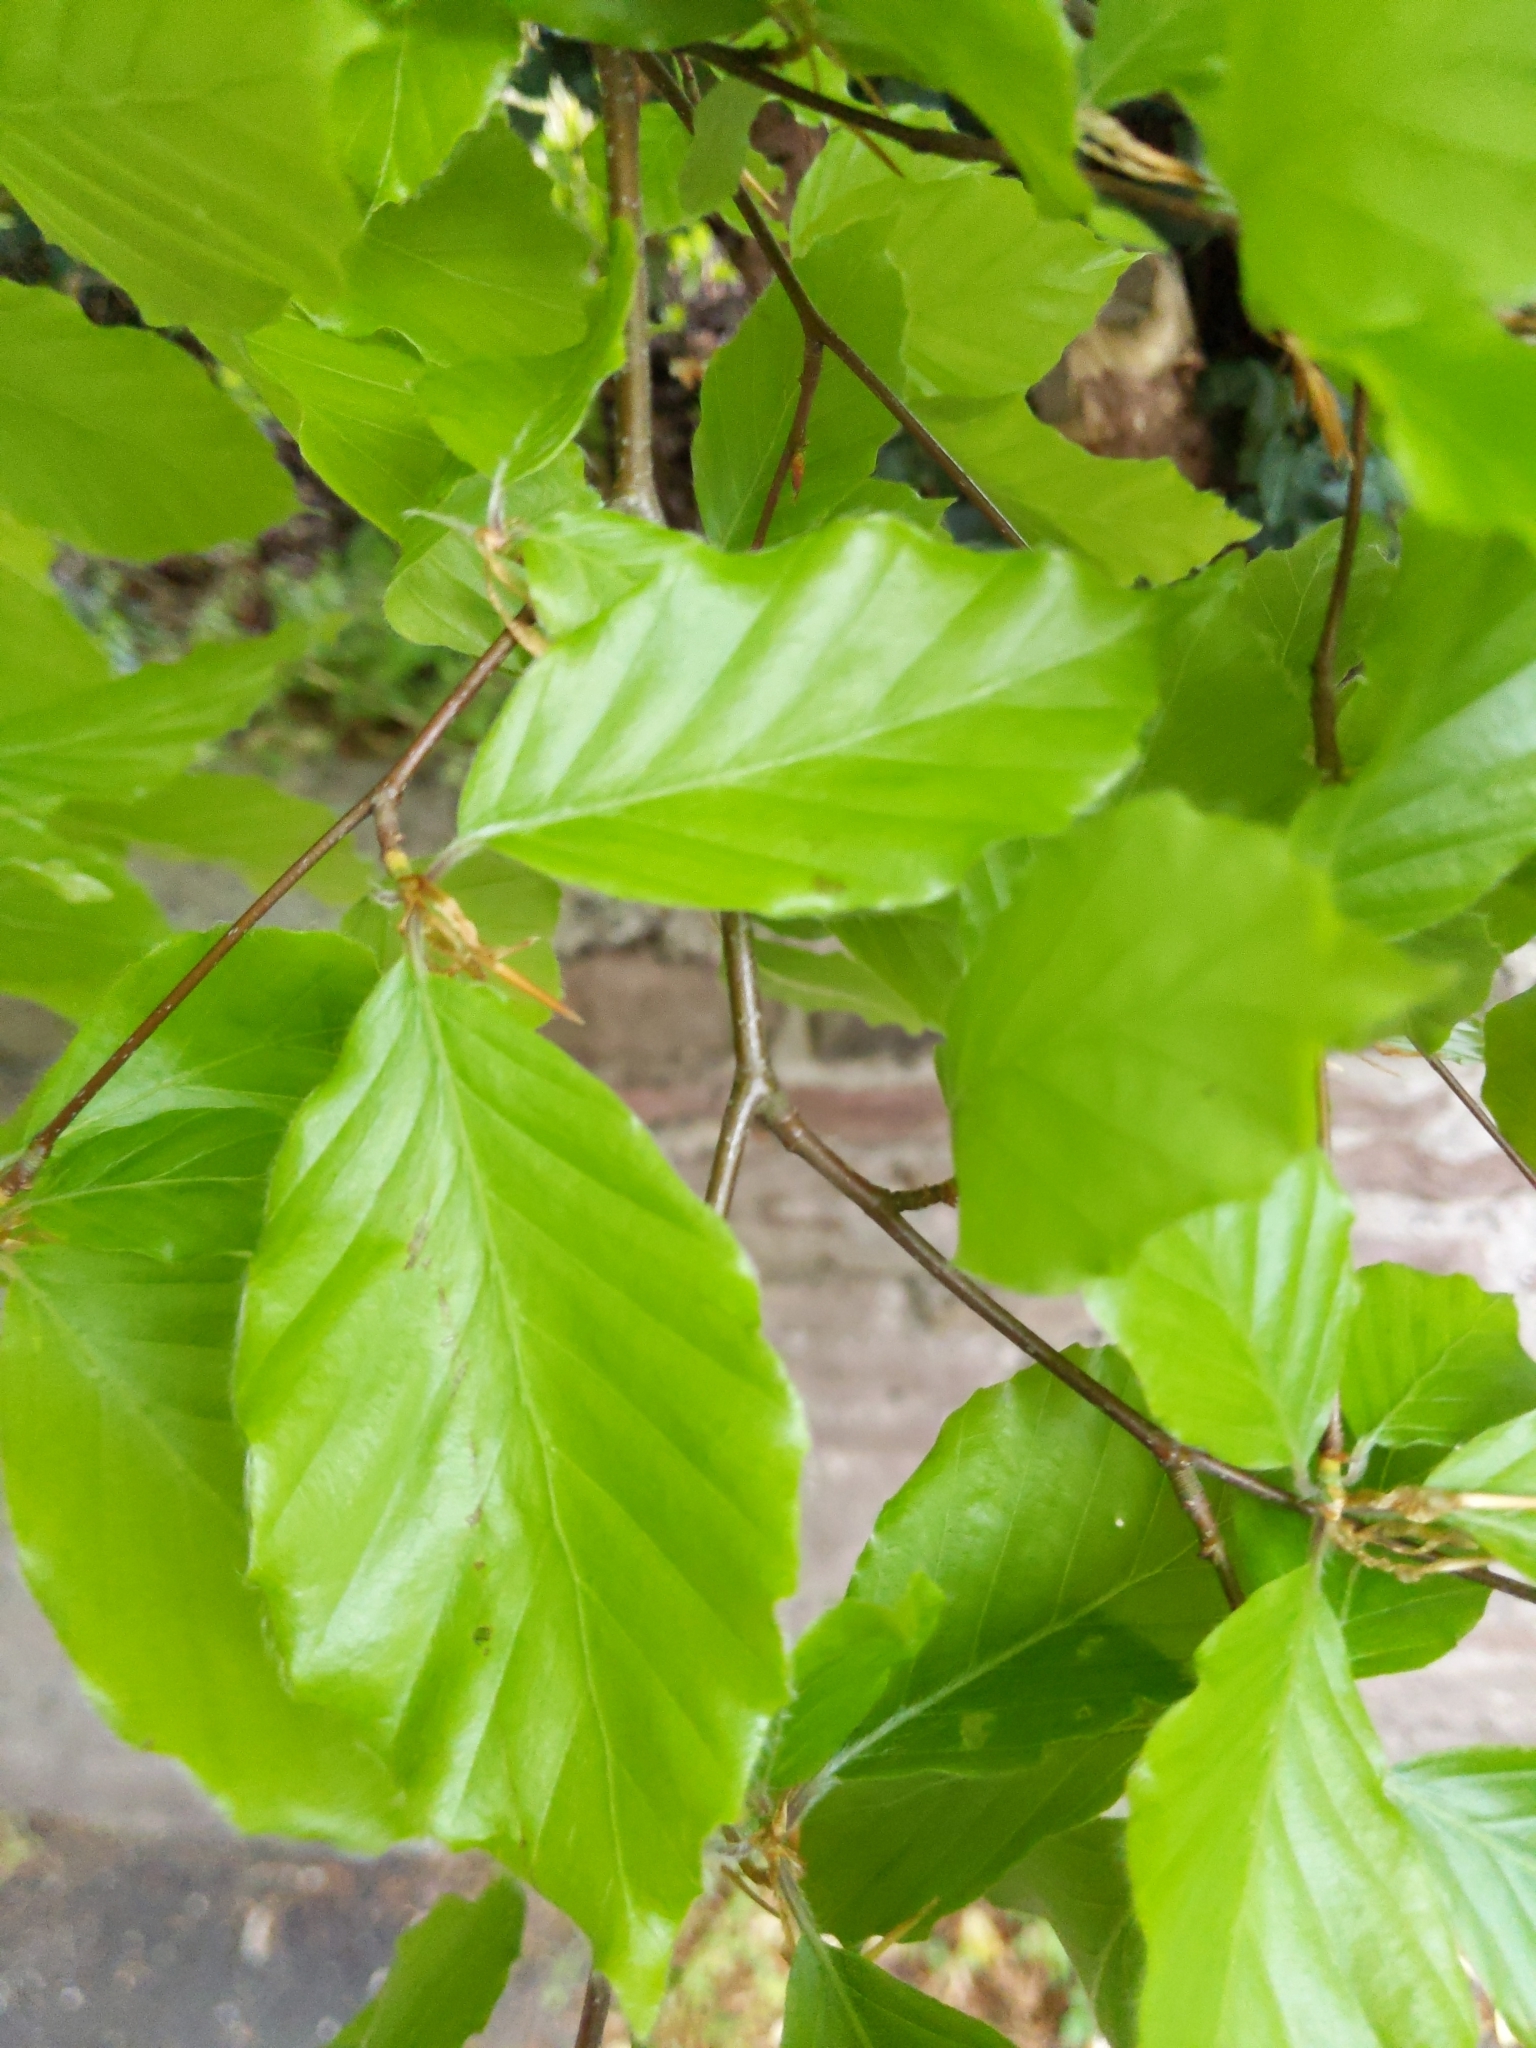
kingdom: Plantae
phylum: Tracheophyta
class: Magnoliopsida
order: Fagales
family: Fagaceae
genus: Fagus
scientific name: Fagus sylvatica
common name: Beech
